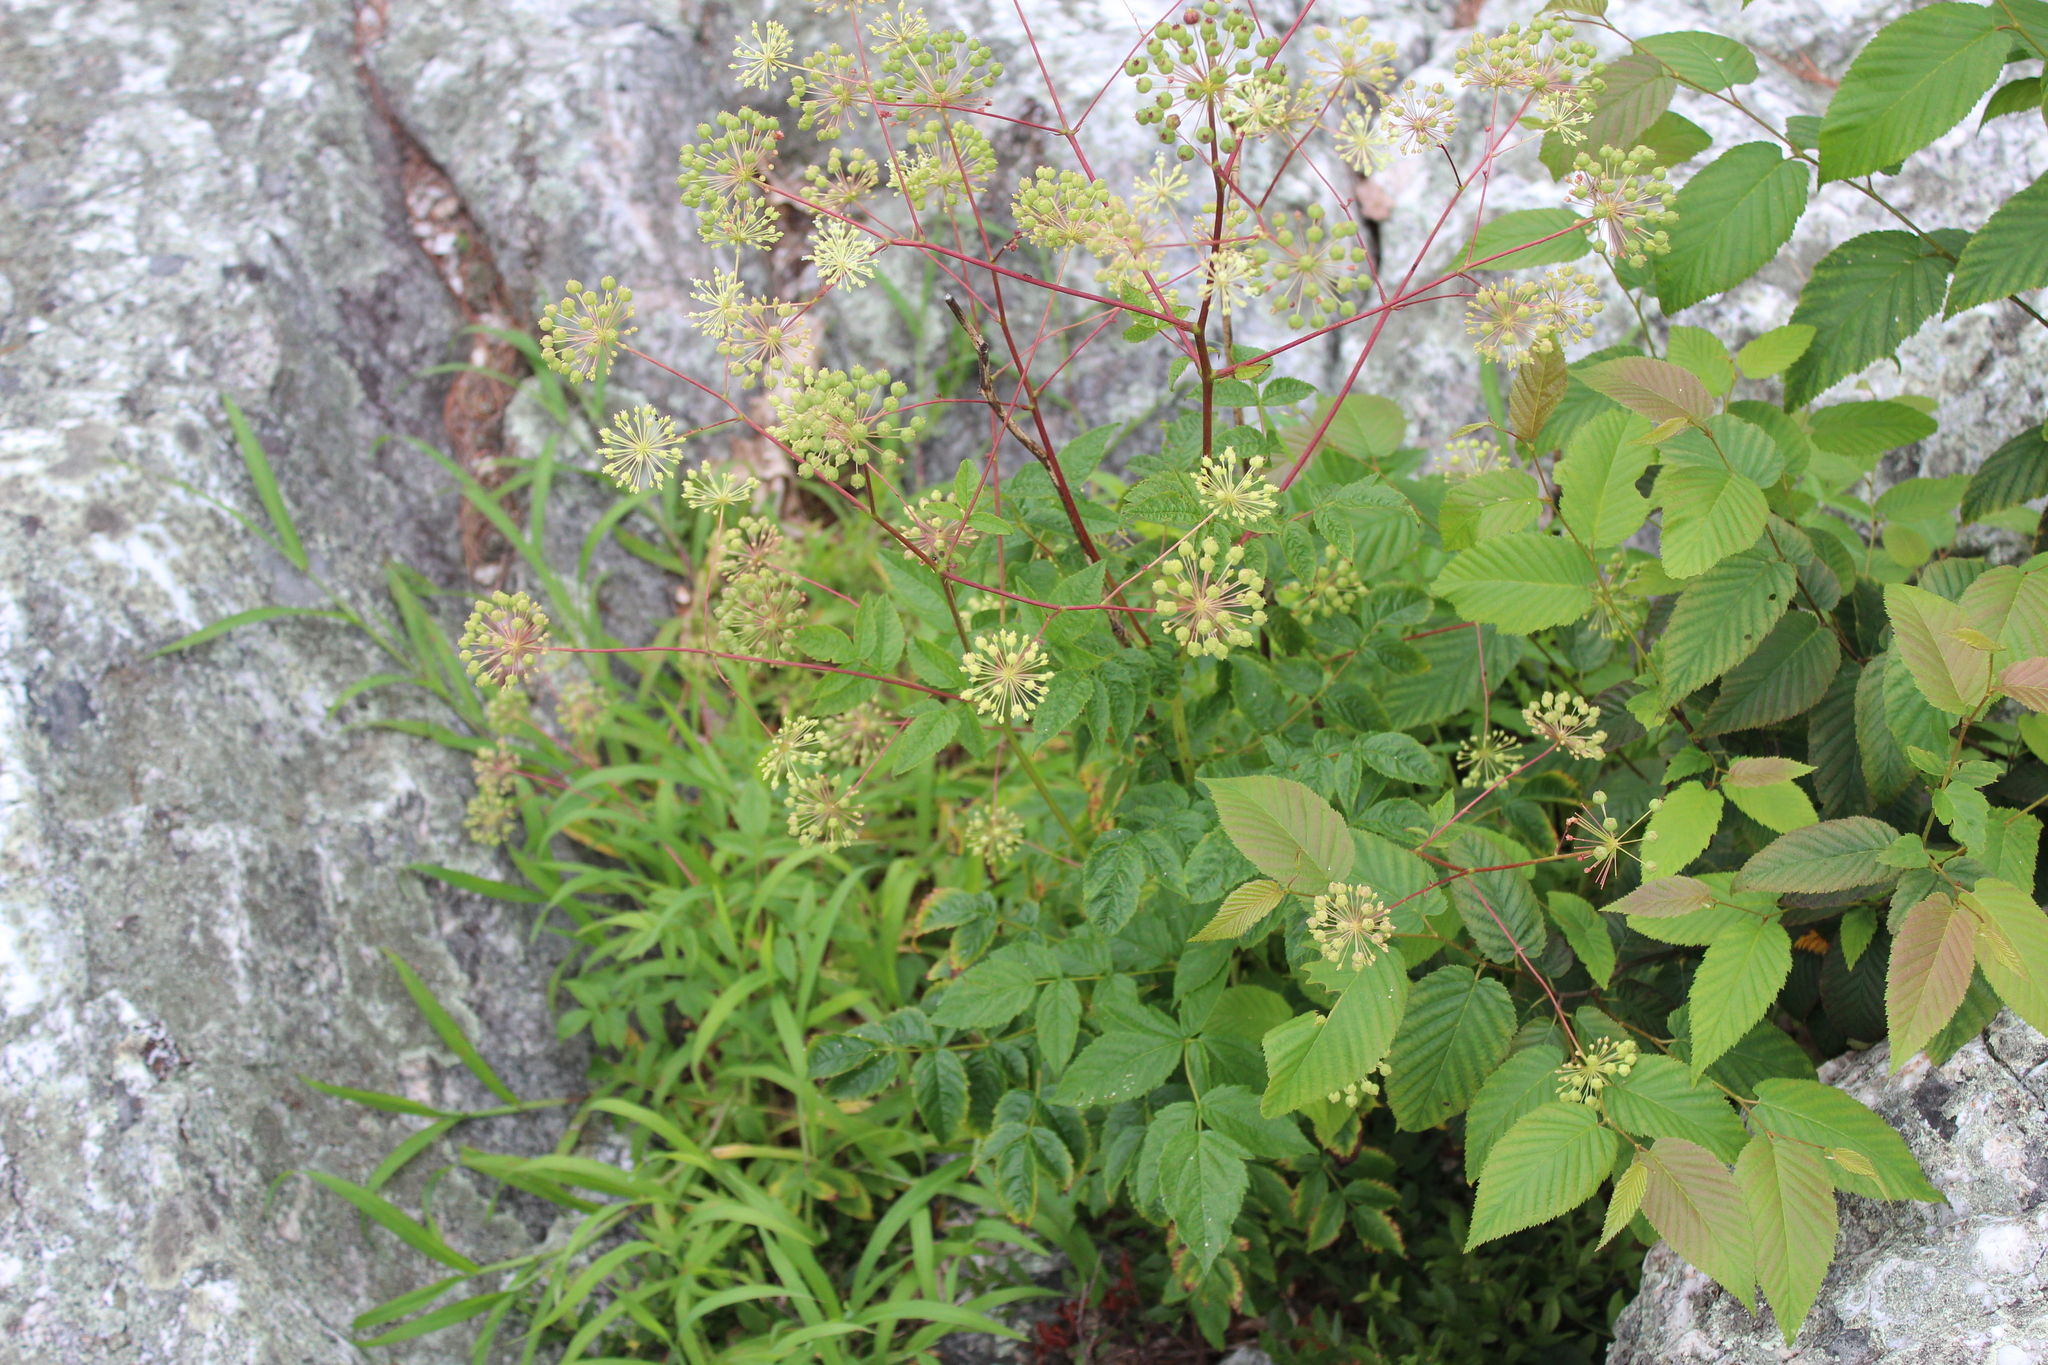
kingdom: Plantae
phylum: Tracheophyta
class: Magnoliopsida
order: Apiales
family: Araliaceae
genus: Aralia
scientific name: Aralia hispida
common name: Bristly sarsaparilla
